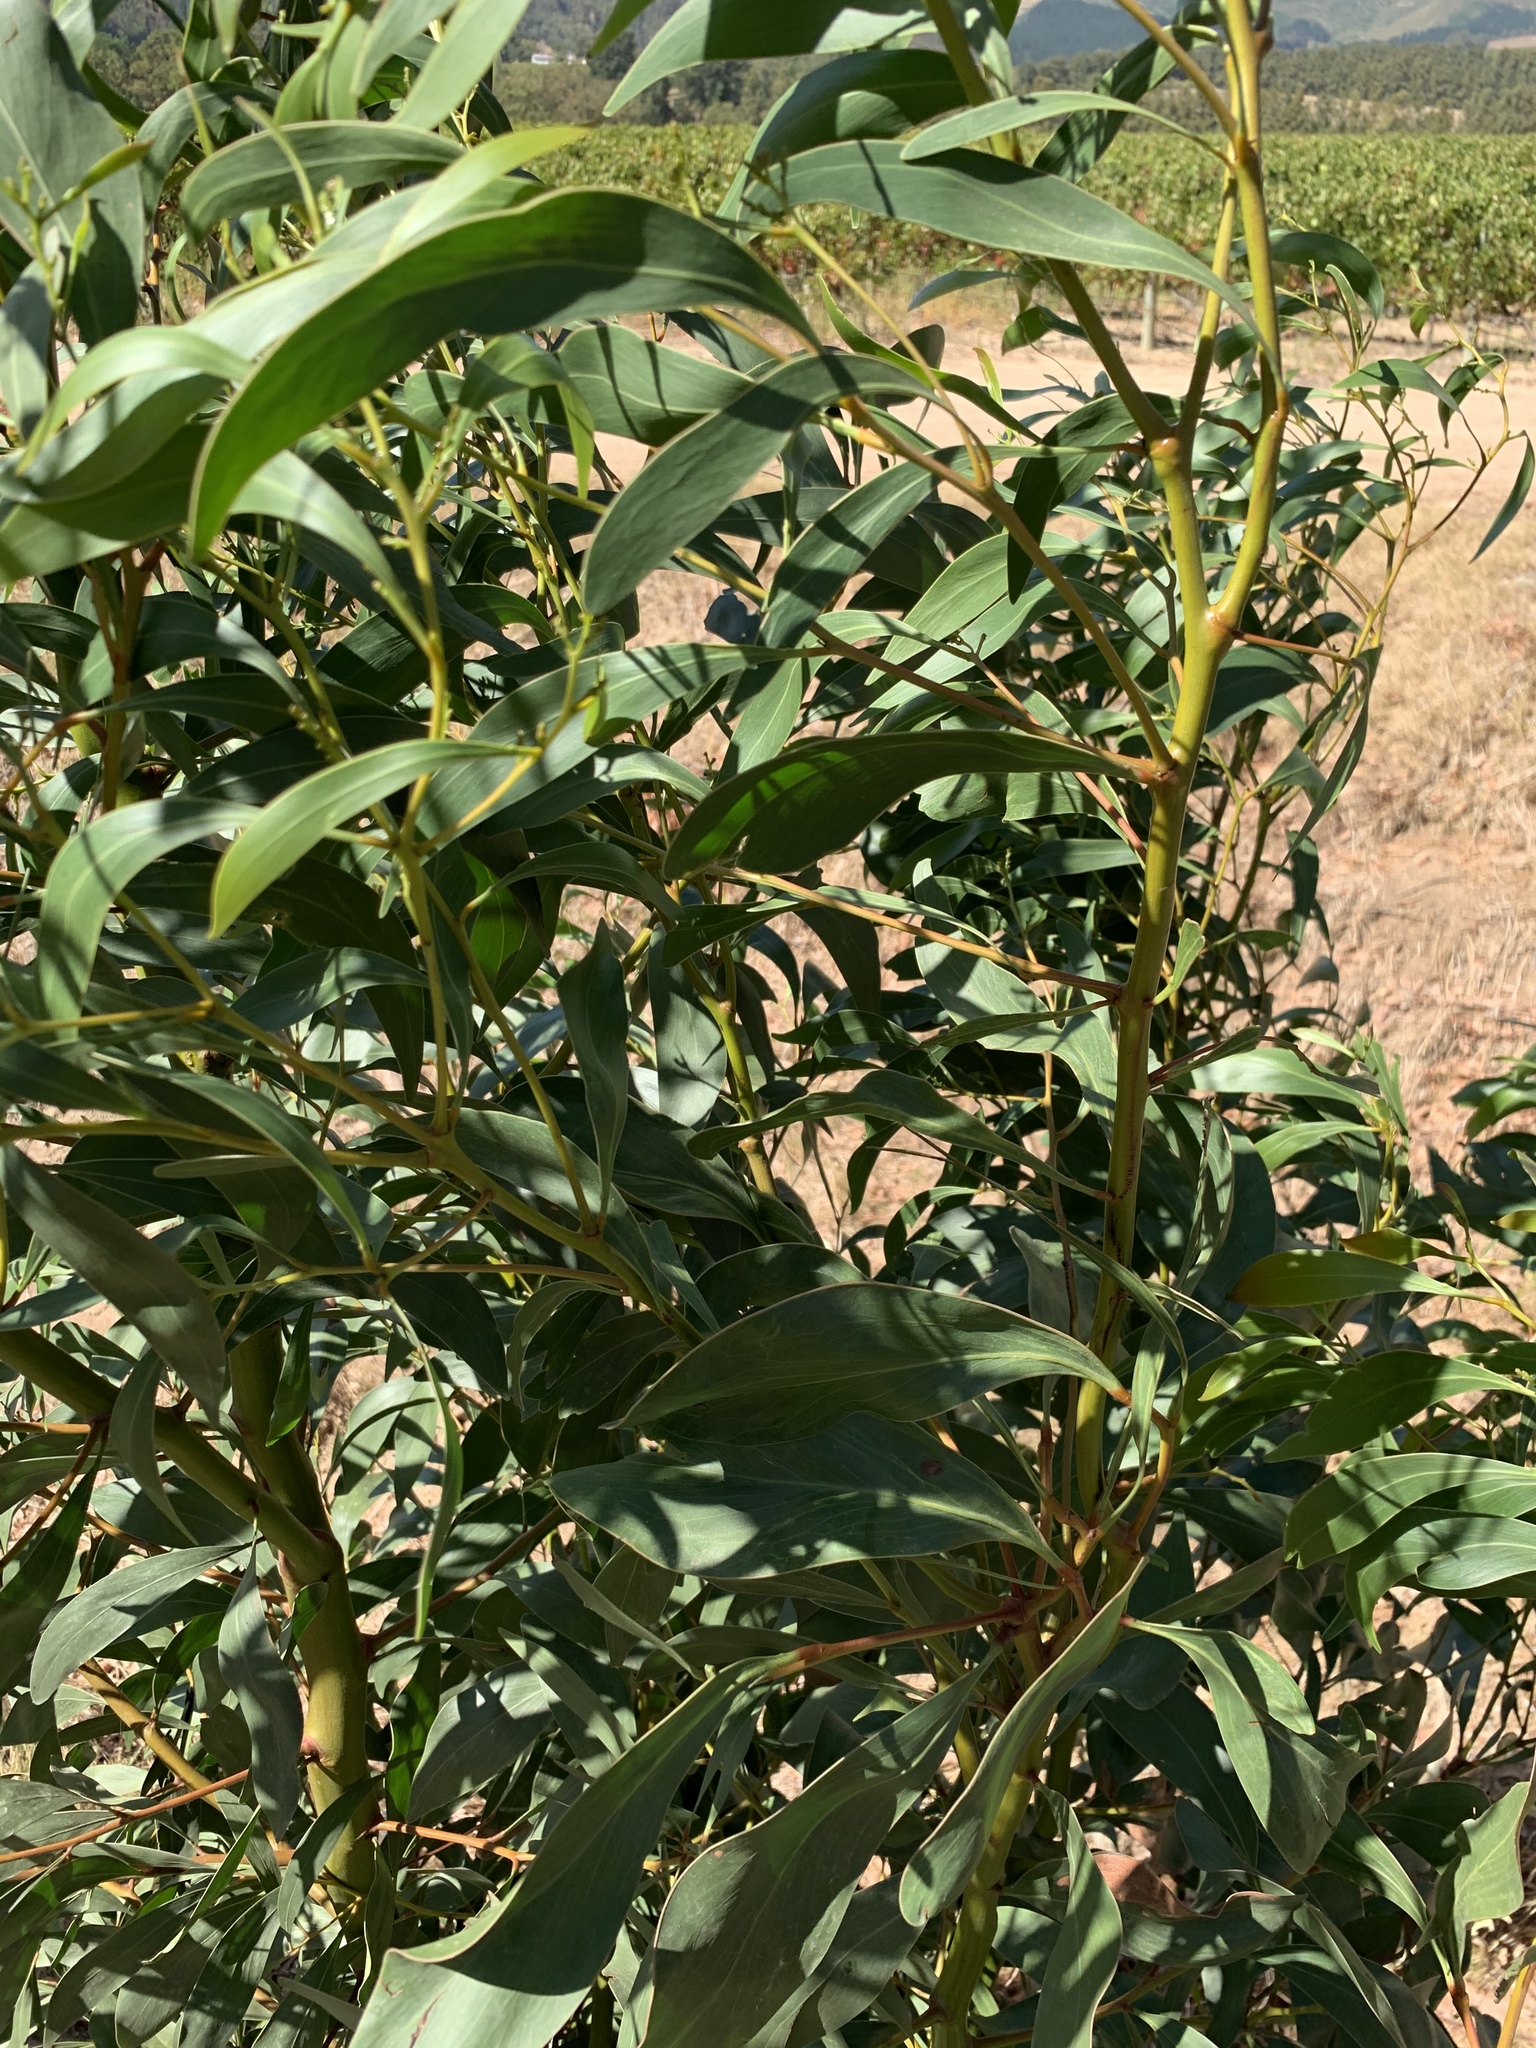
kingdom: Plantae
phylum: Tracheophyta
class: Magnoliopsida
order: Fabales
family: Fabaceae
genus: Acacia
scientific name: Acacia pycnantha
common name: Golden wattle
